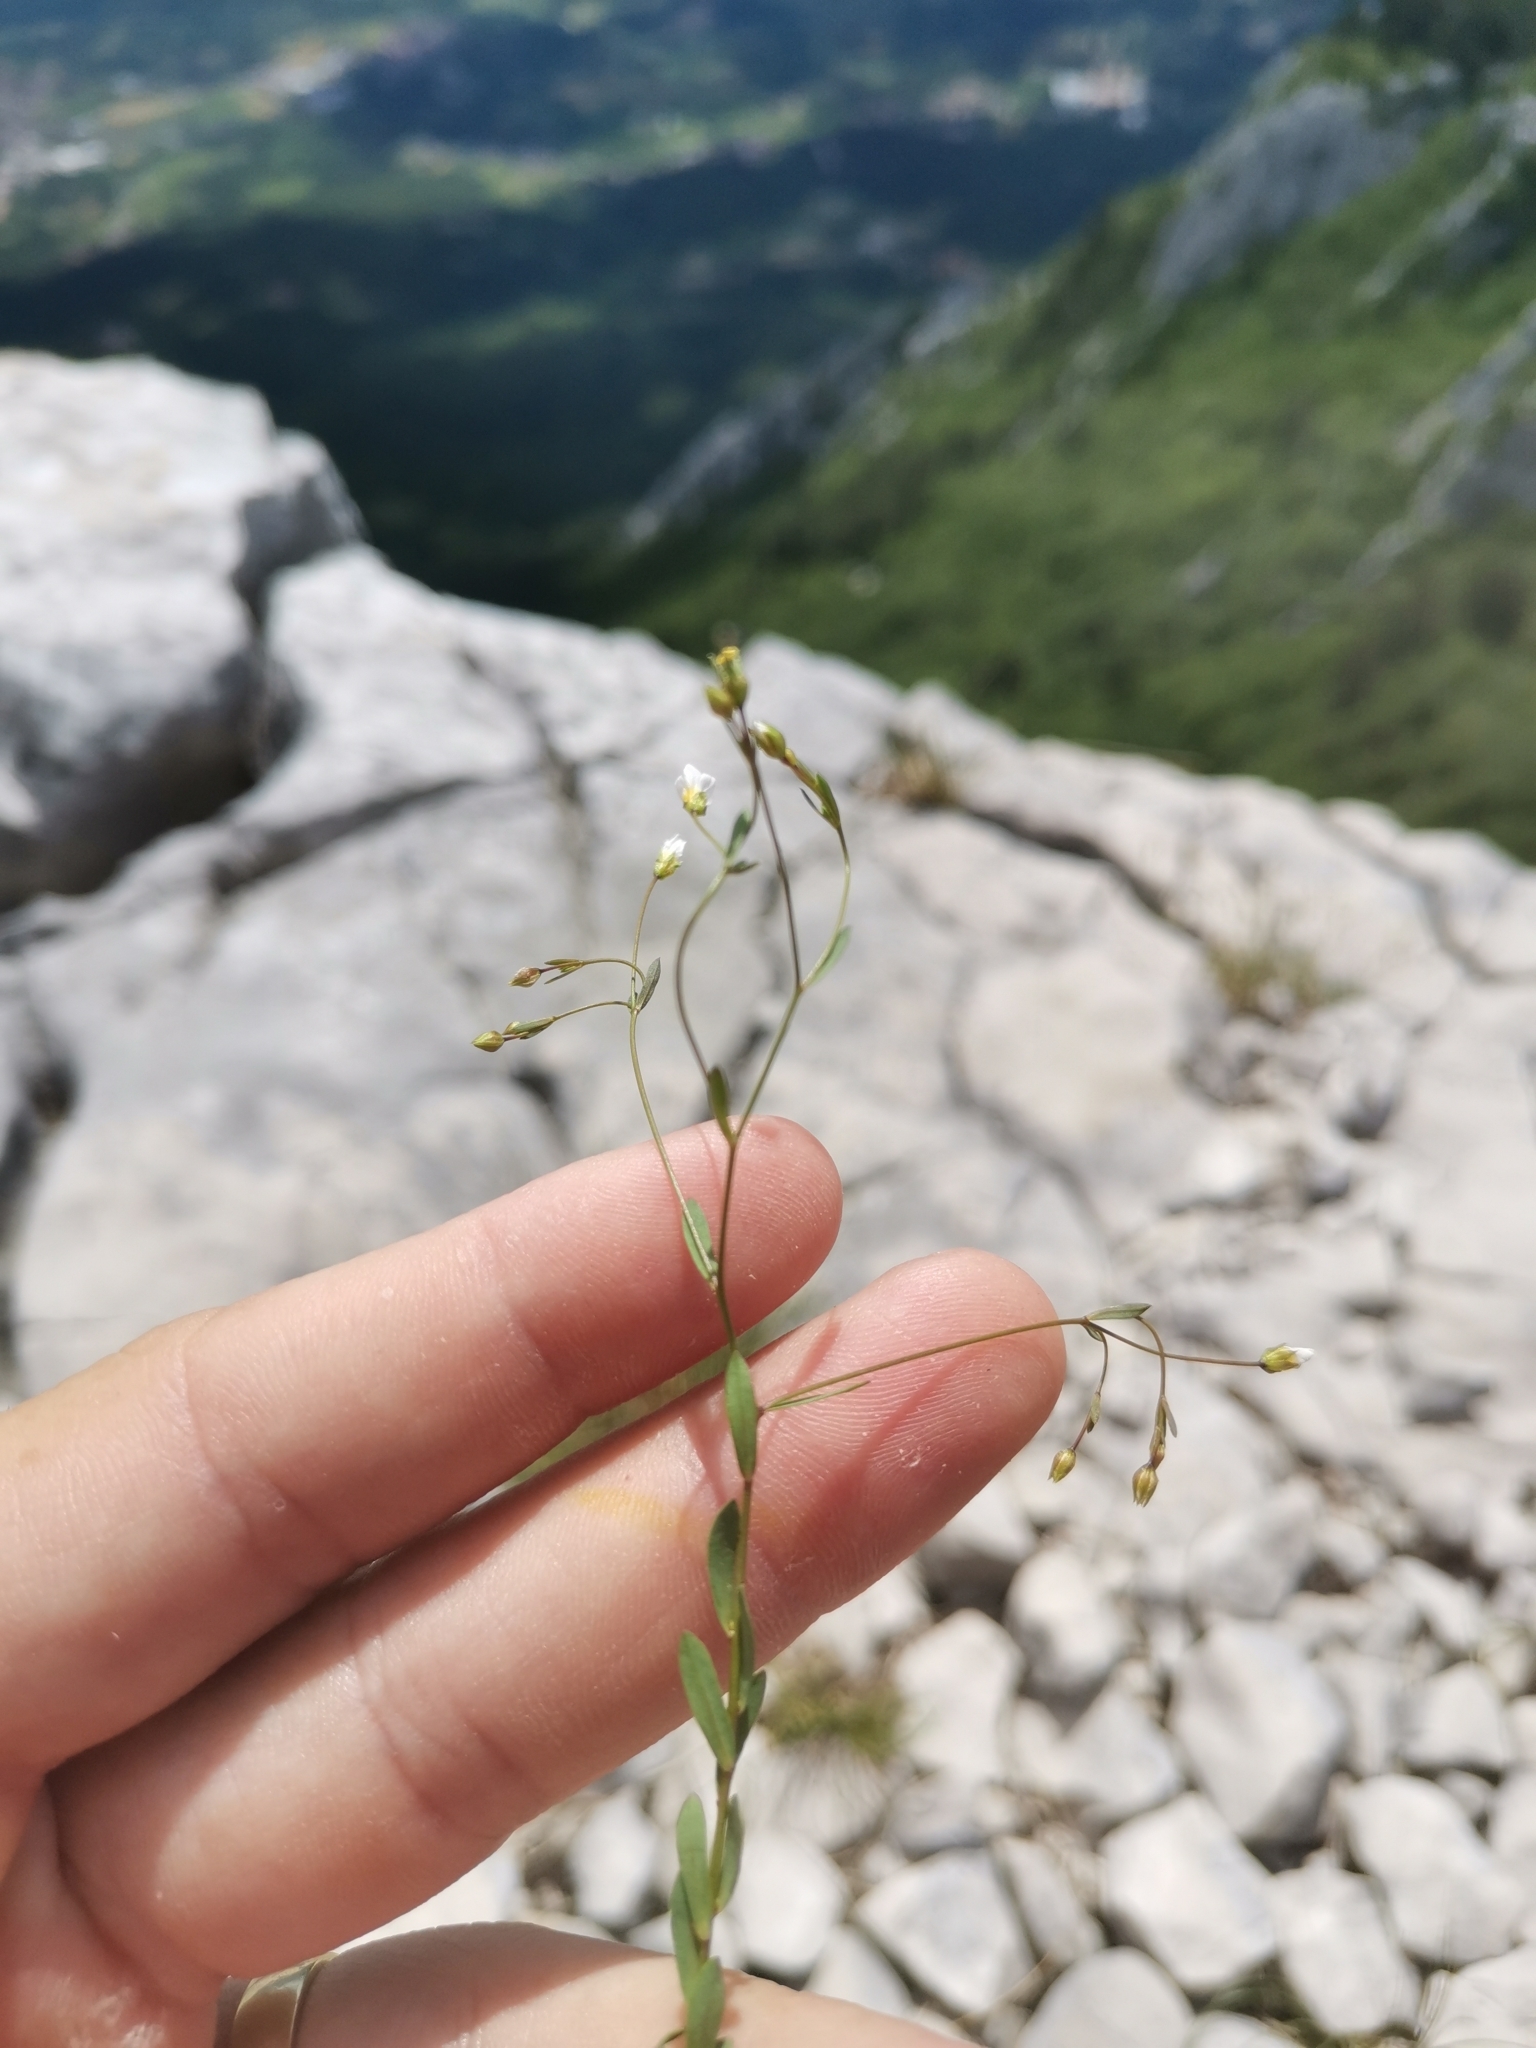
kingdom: Plantae
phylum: Tracheophyta
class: Magnoliopsida
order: Malpighiales
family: Linaceae
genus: Linum
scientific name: Linum catharticum
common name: Fairy flax
